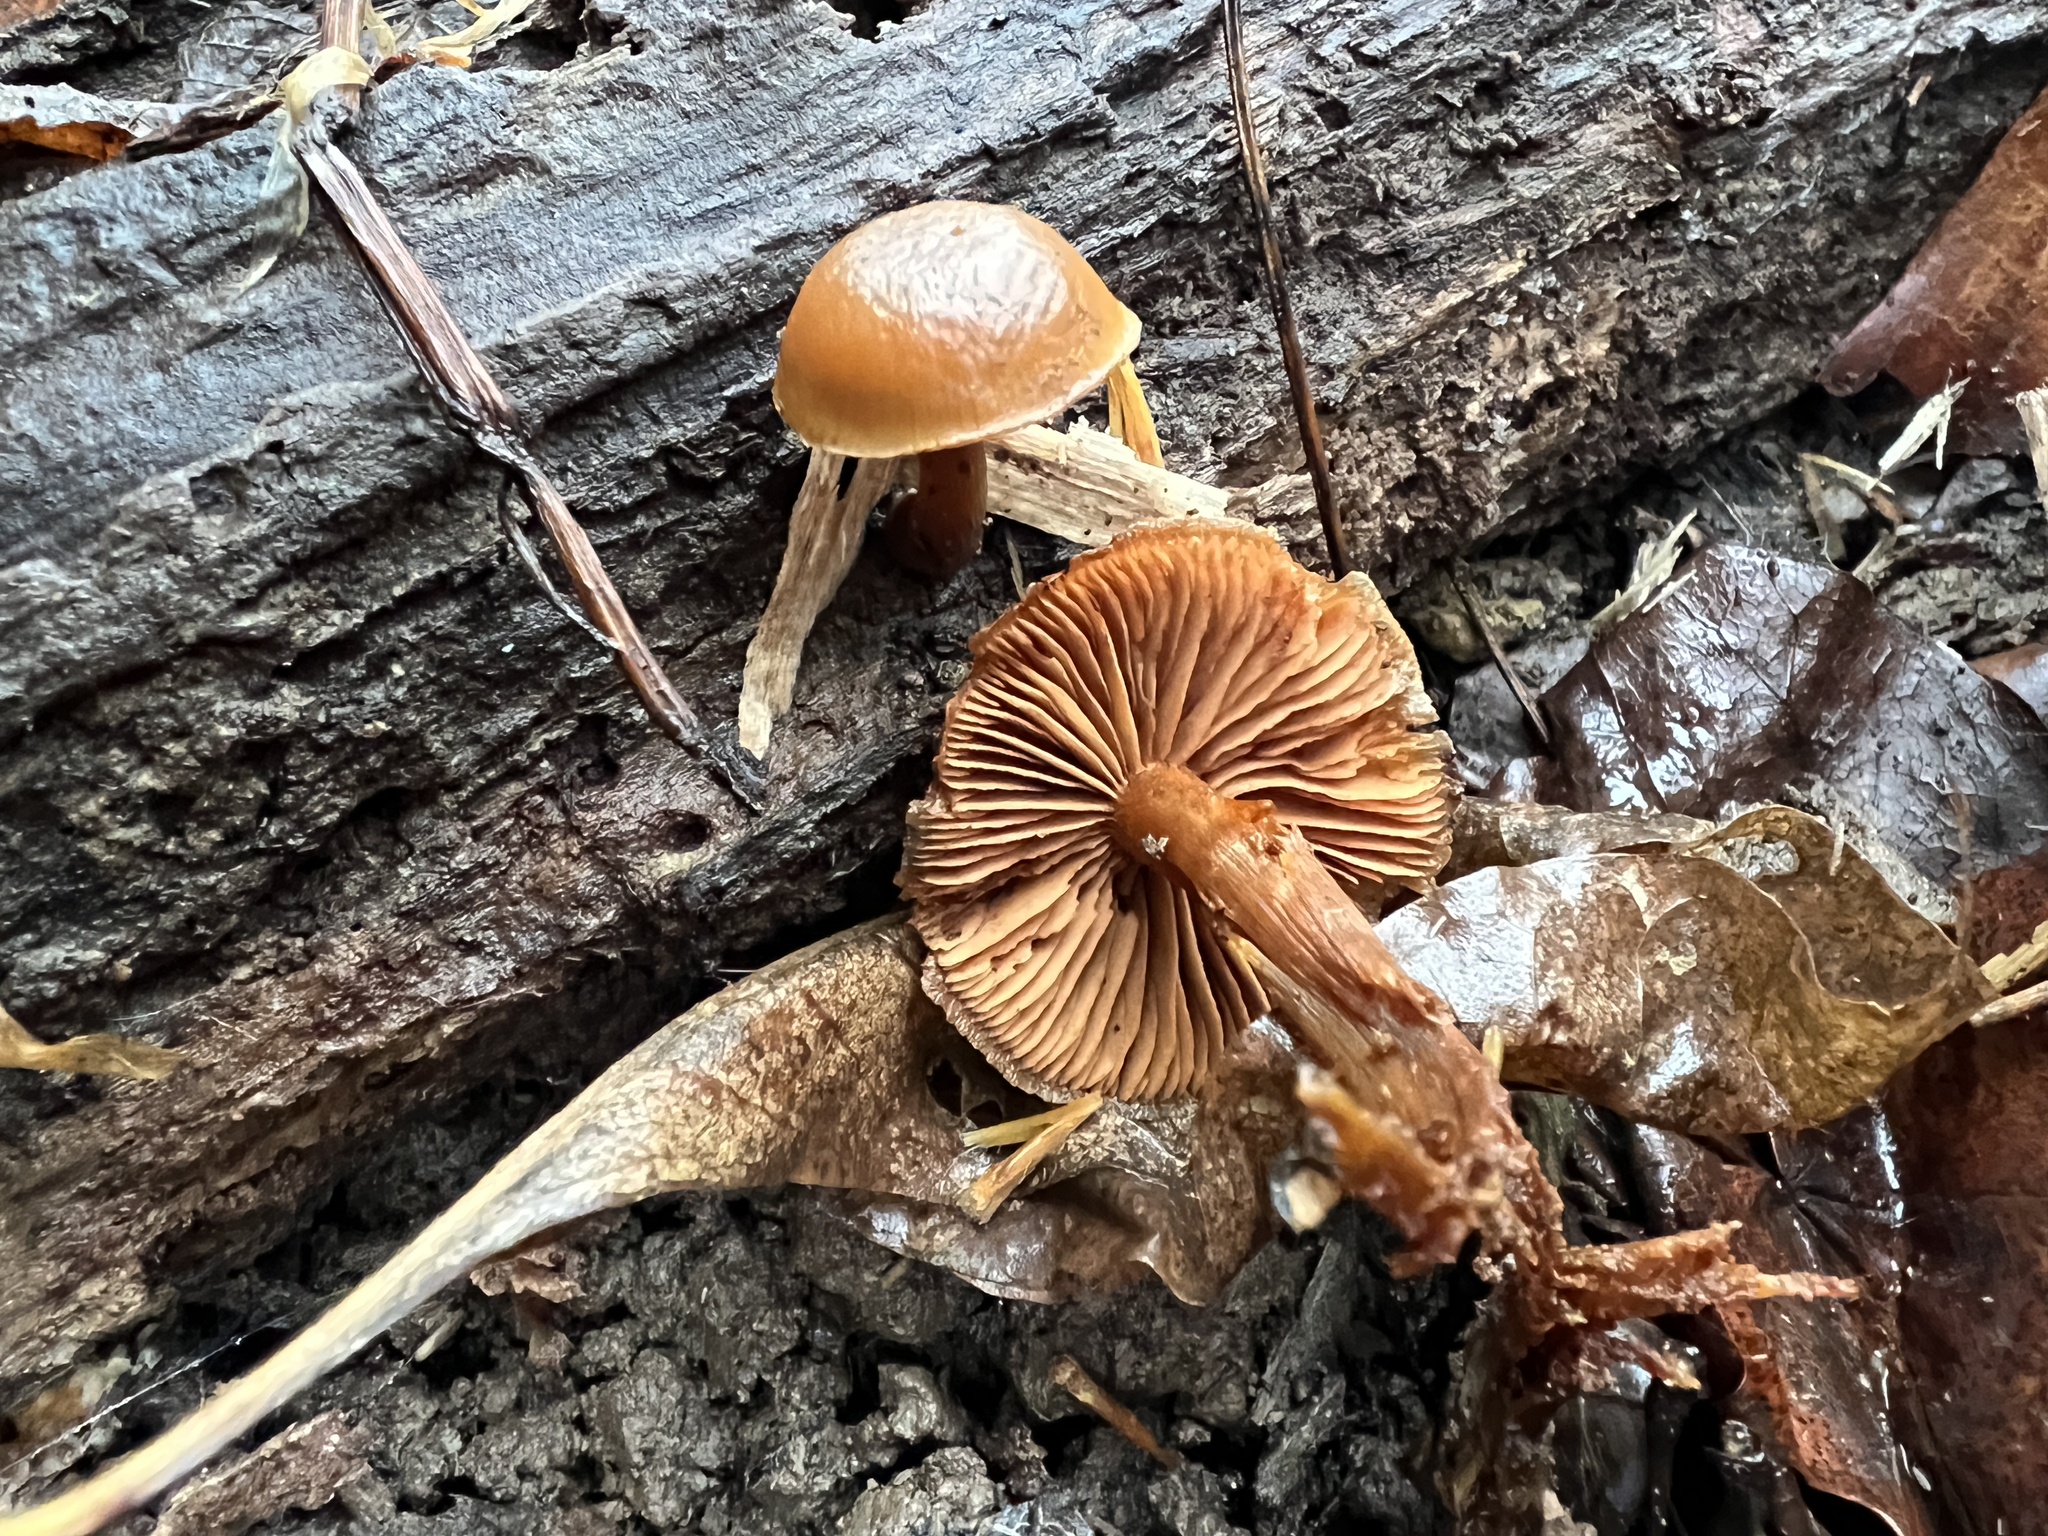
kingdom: Fungi
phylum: Basidiomycota
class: Agaricomycetes
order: Agaricales
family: Hymenogastraceae
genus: Galerina
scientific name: Galerina marginata
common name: Funeral bell
